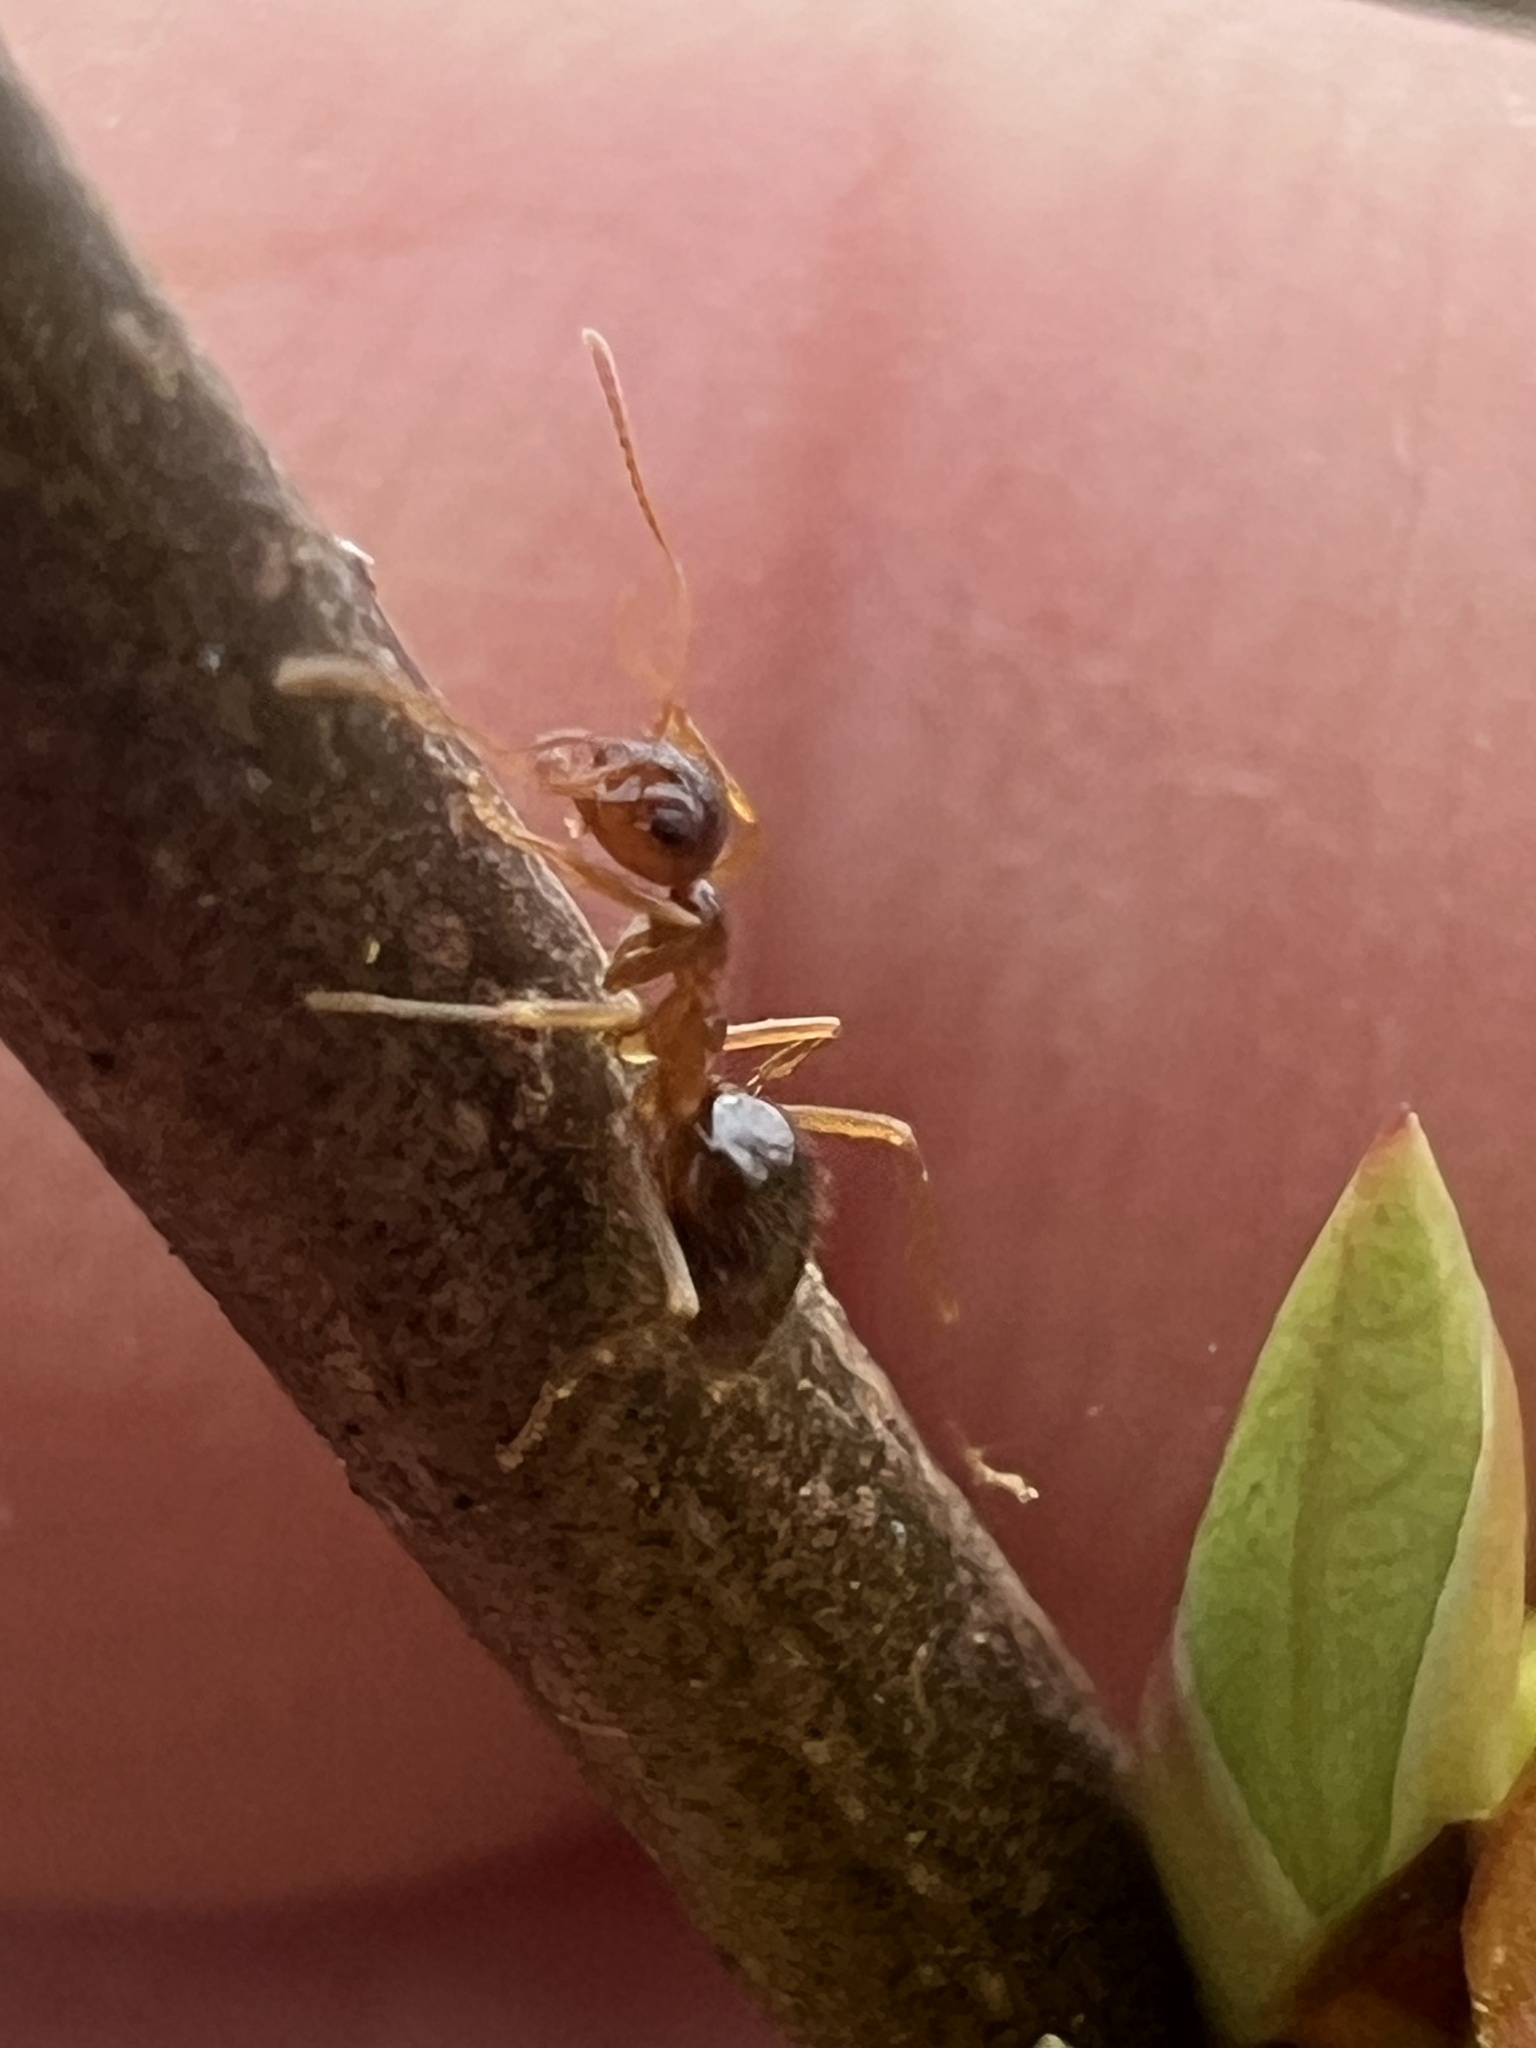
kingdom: Animalia
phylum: Arthropoda
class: Insecta
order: Hymenoptera
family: Formicidae
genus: Prenolepis
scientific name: Prenolepis imparis
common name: Small honey ant
